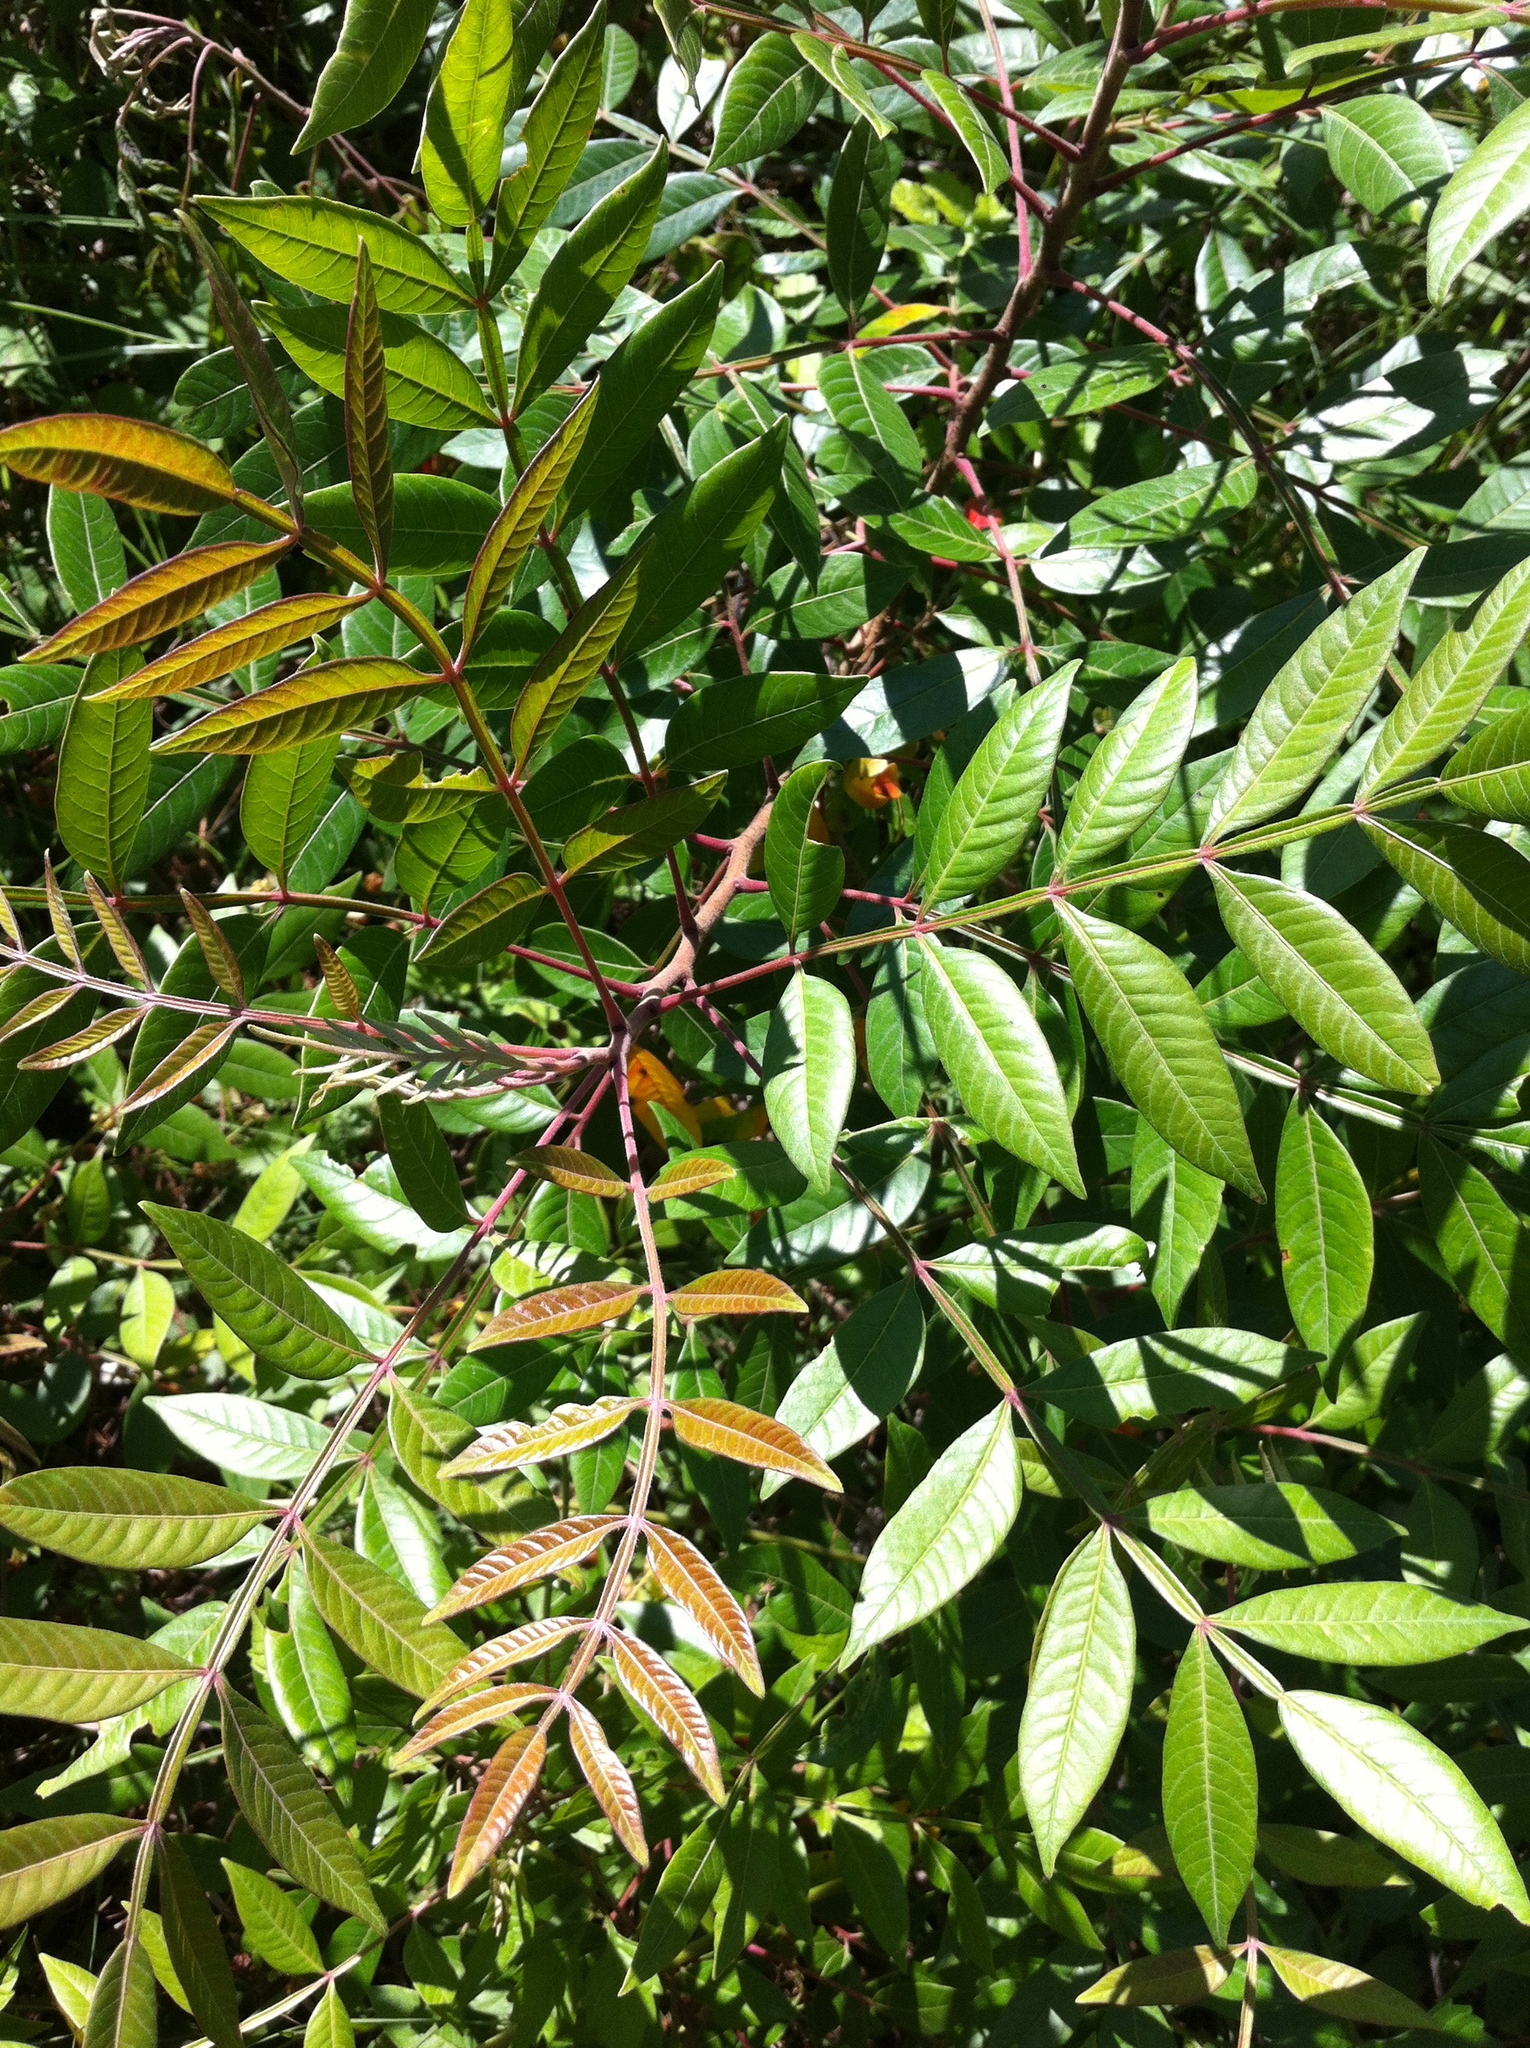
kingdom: Plantae
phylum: Tracheophyta
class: Magnoliopsida
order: Sapindales
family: Anacardiaceae
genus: Rhus
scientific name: Rhus copallina
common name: Shining sumac
